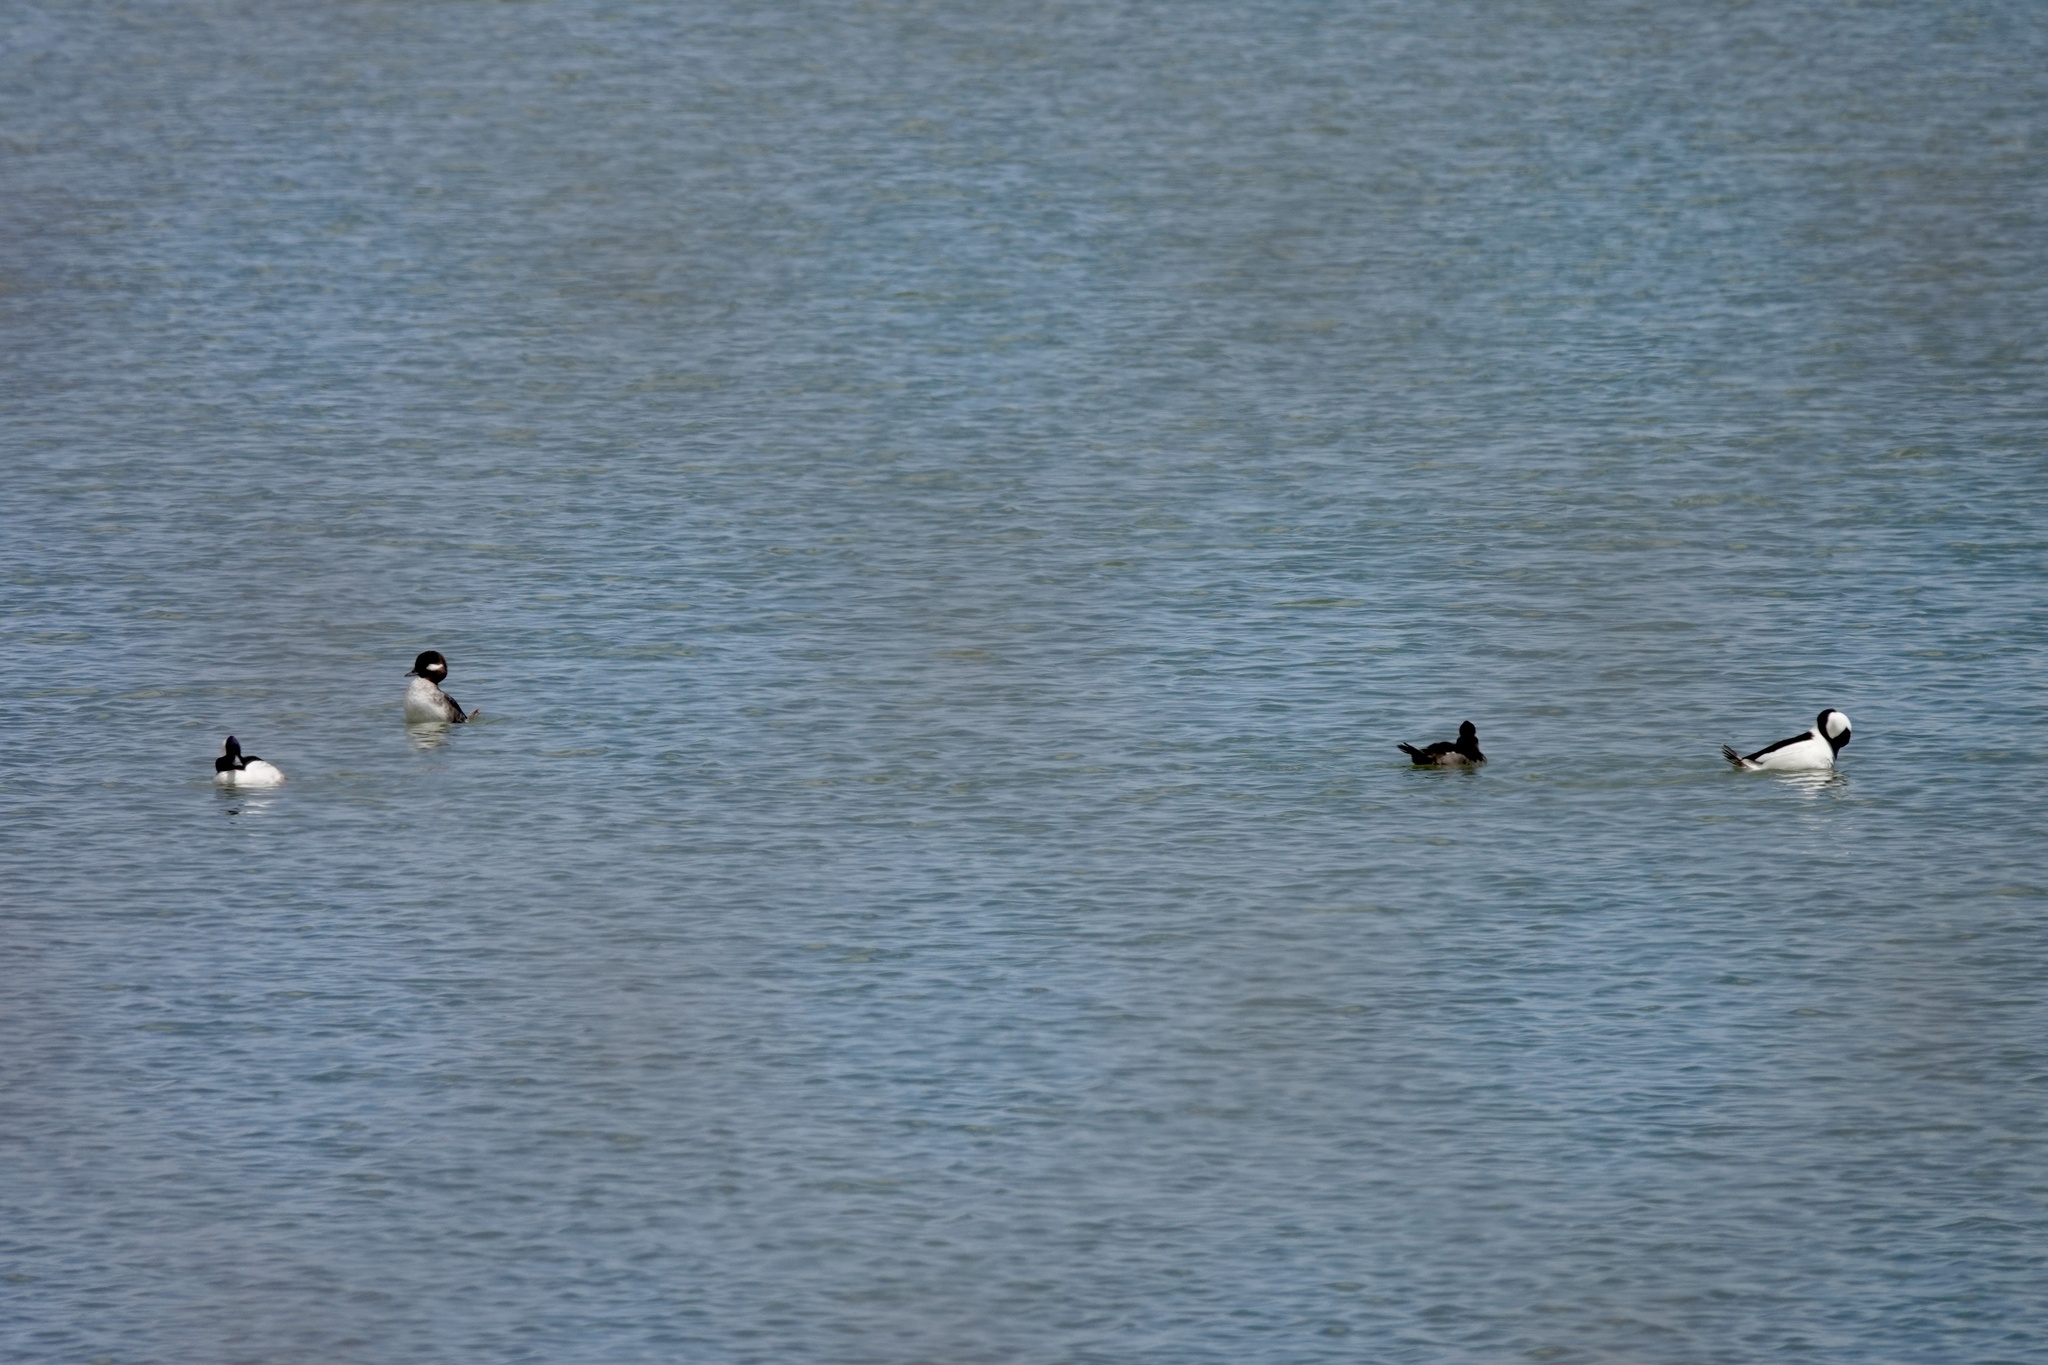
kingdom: Animalia
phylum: Chordata
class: Aves
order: Anseriformes
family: Anatidae
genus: Bucephala
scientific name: Bucephala albeola
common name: Bufflehead
